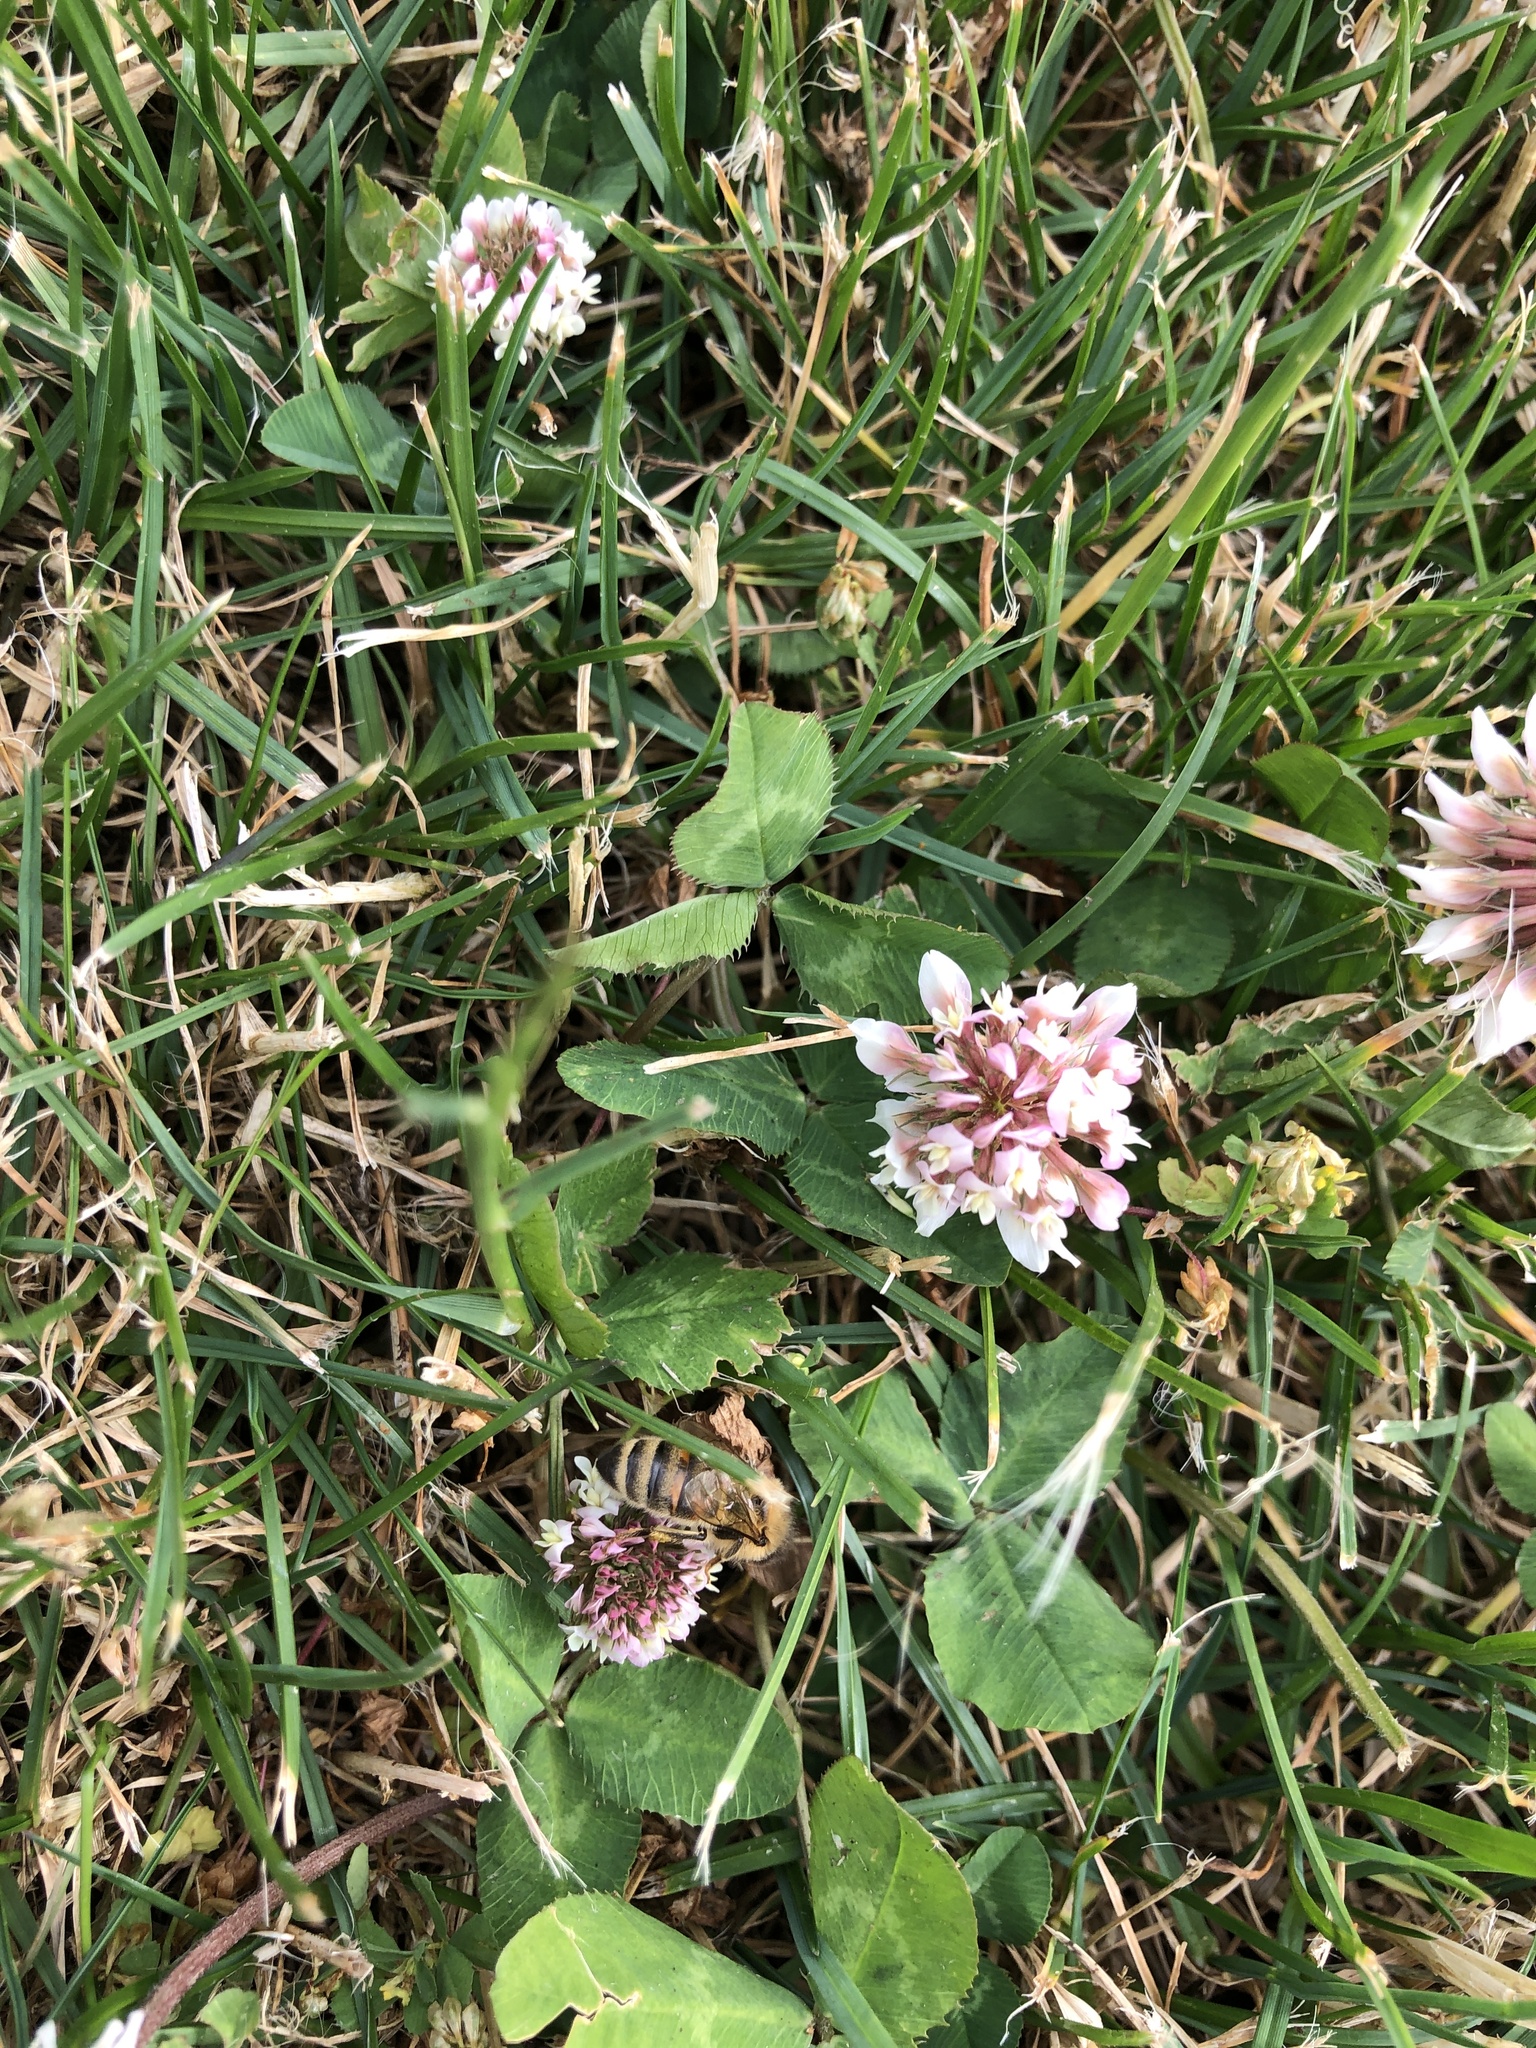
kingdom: Animalia
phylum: Arthropoda
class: Insecta
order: Hymenoptera
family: Apidae
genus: Apis
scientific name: Apis mellifera
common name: Honey bee
